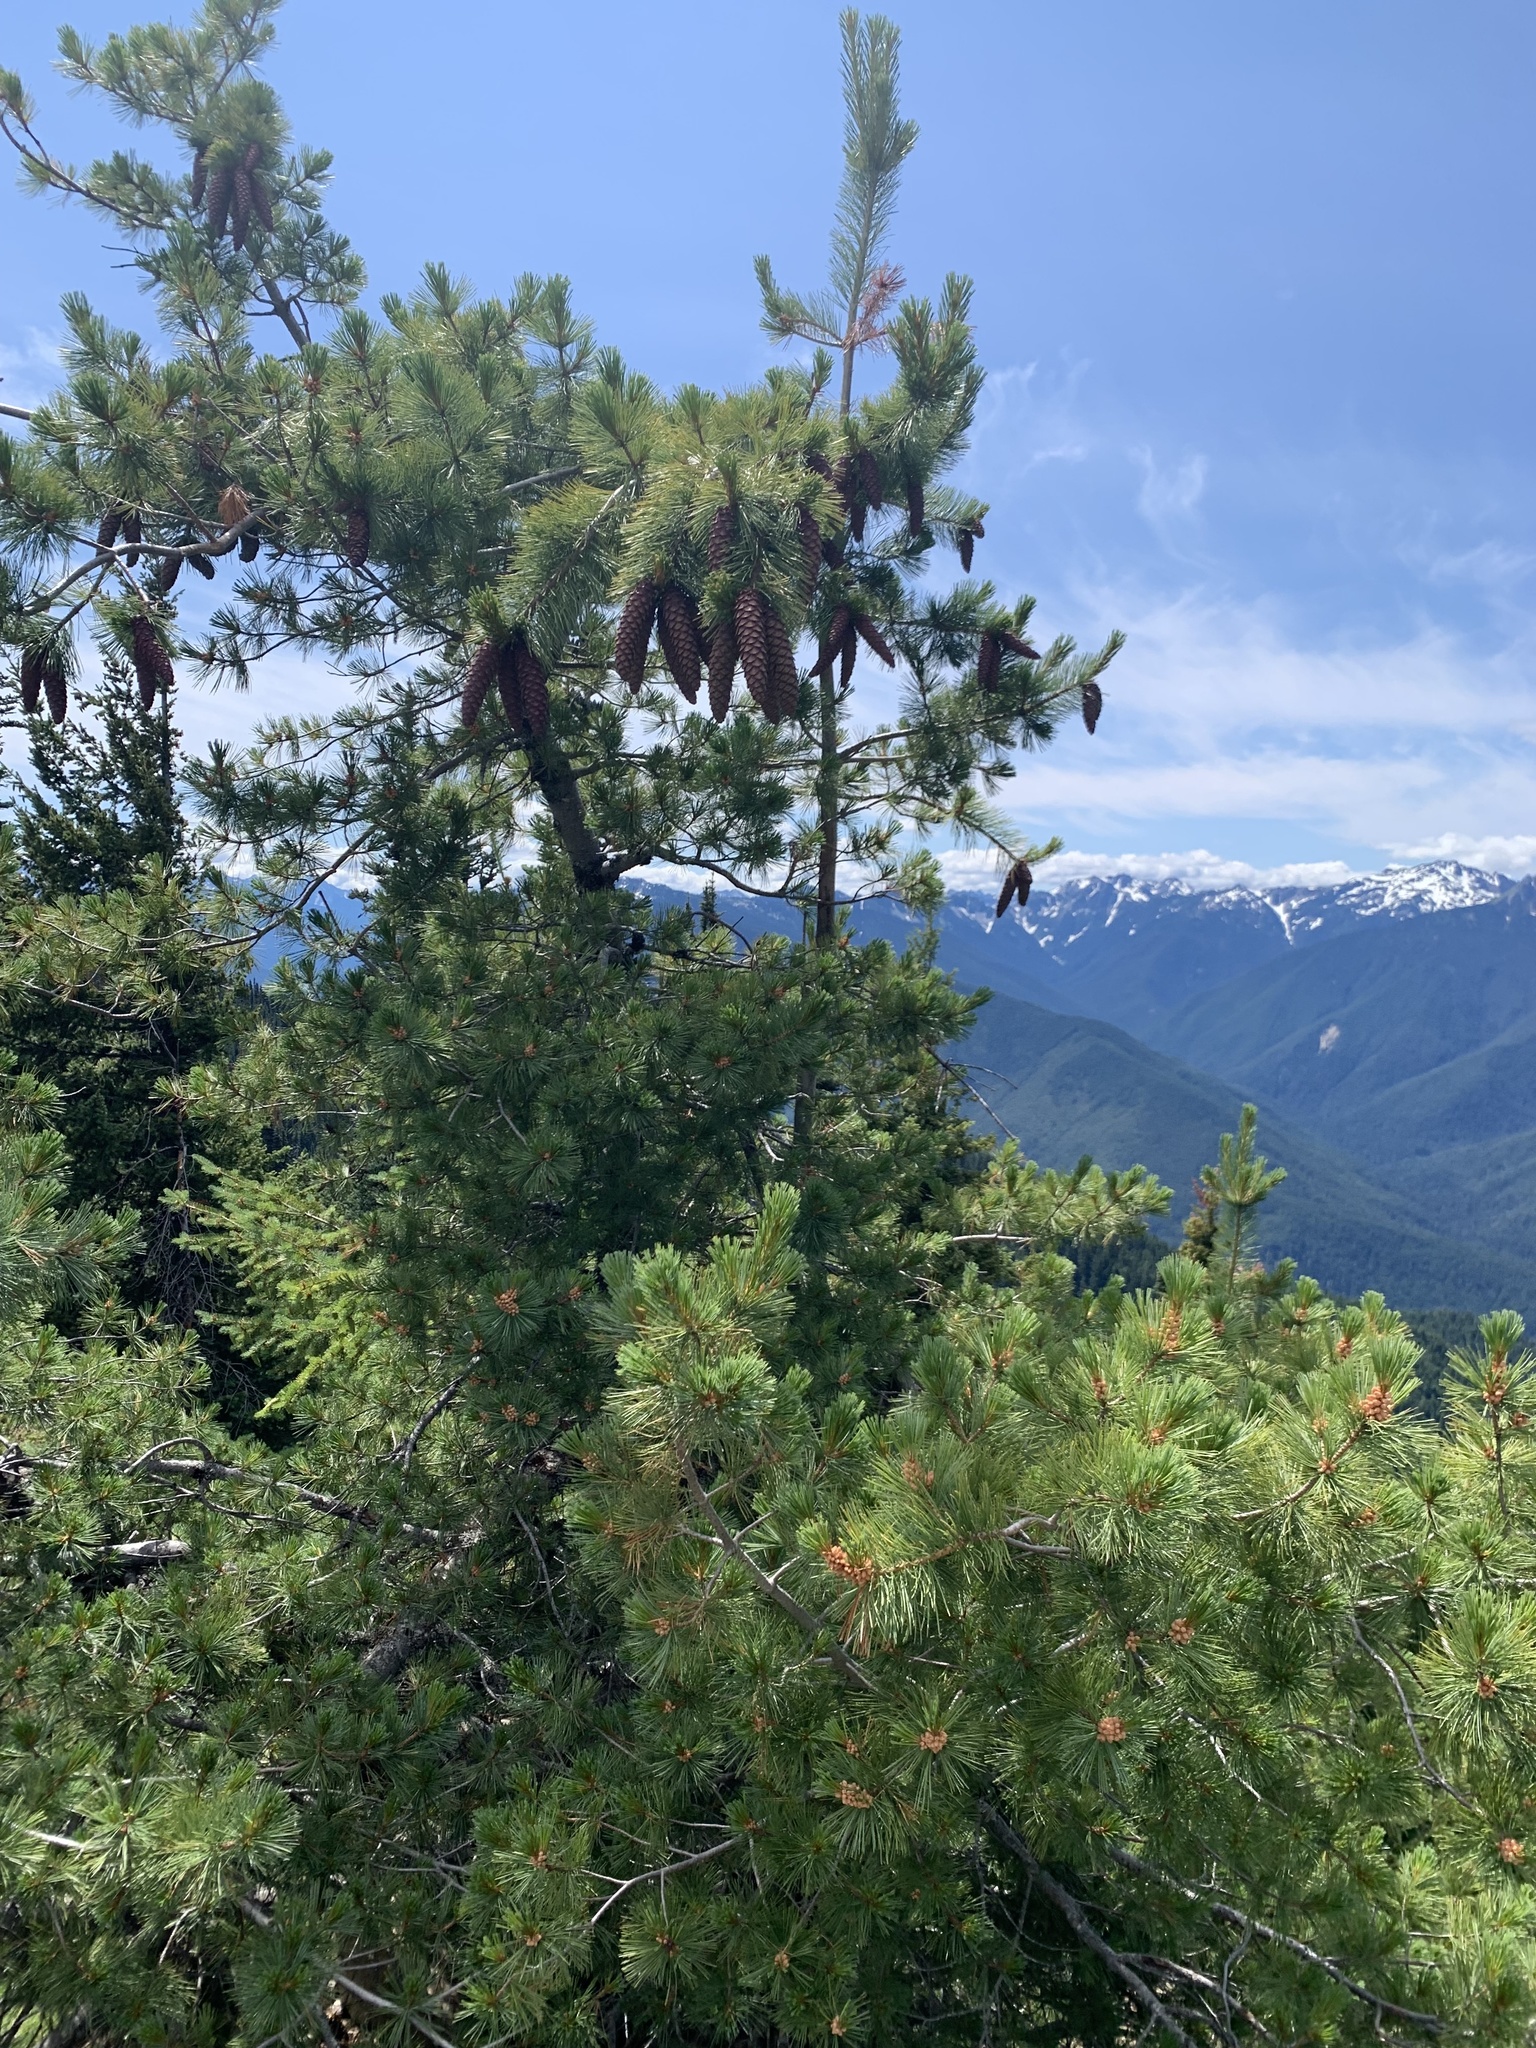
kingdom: Plantae
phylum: Tracheophyta
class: Pinopsida
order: Pinales
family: Pinaceae
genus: Pinus
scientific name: Pinus monticola
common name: Western white pine
